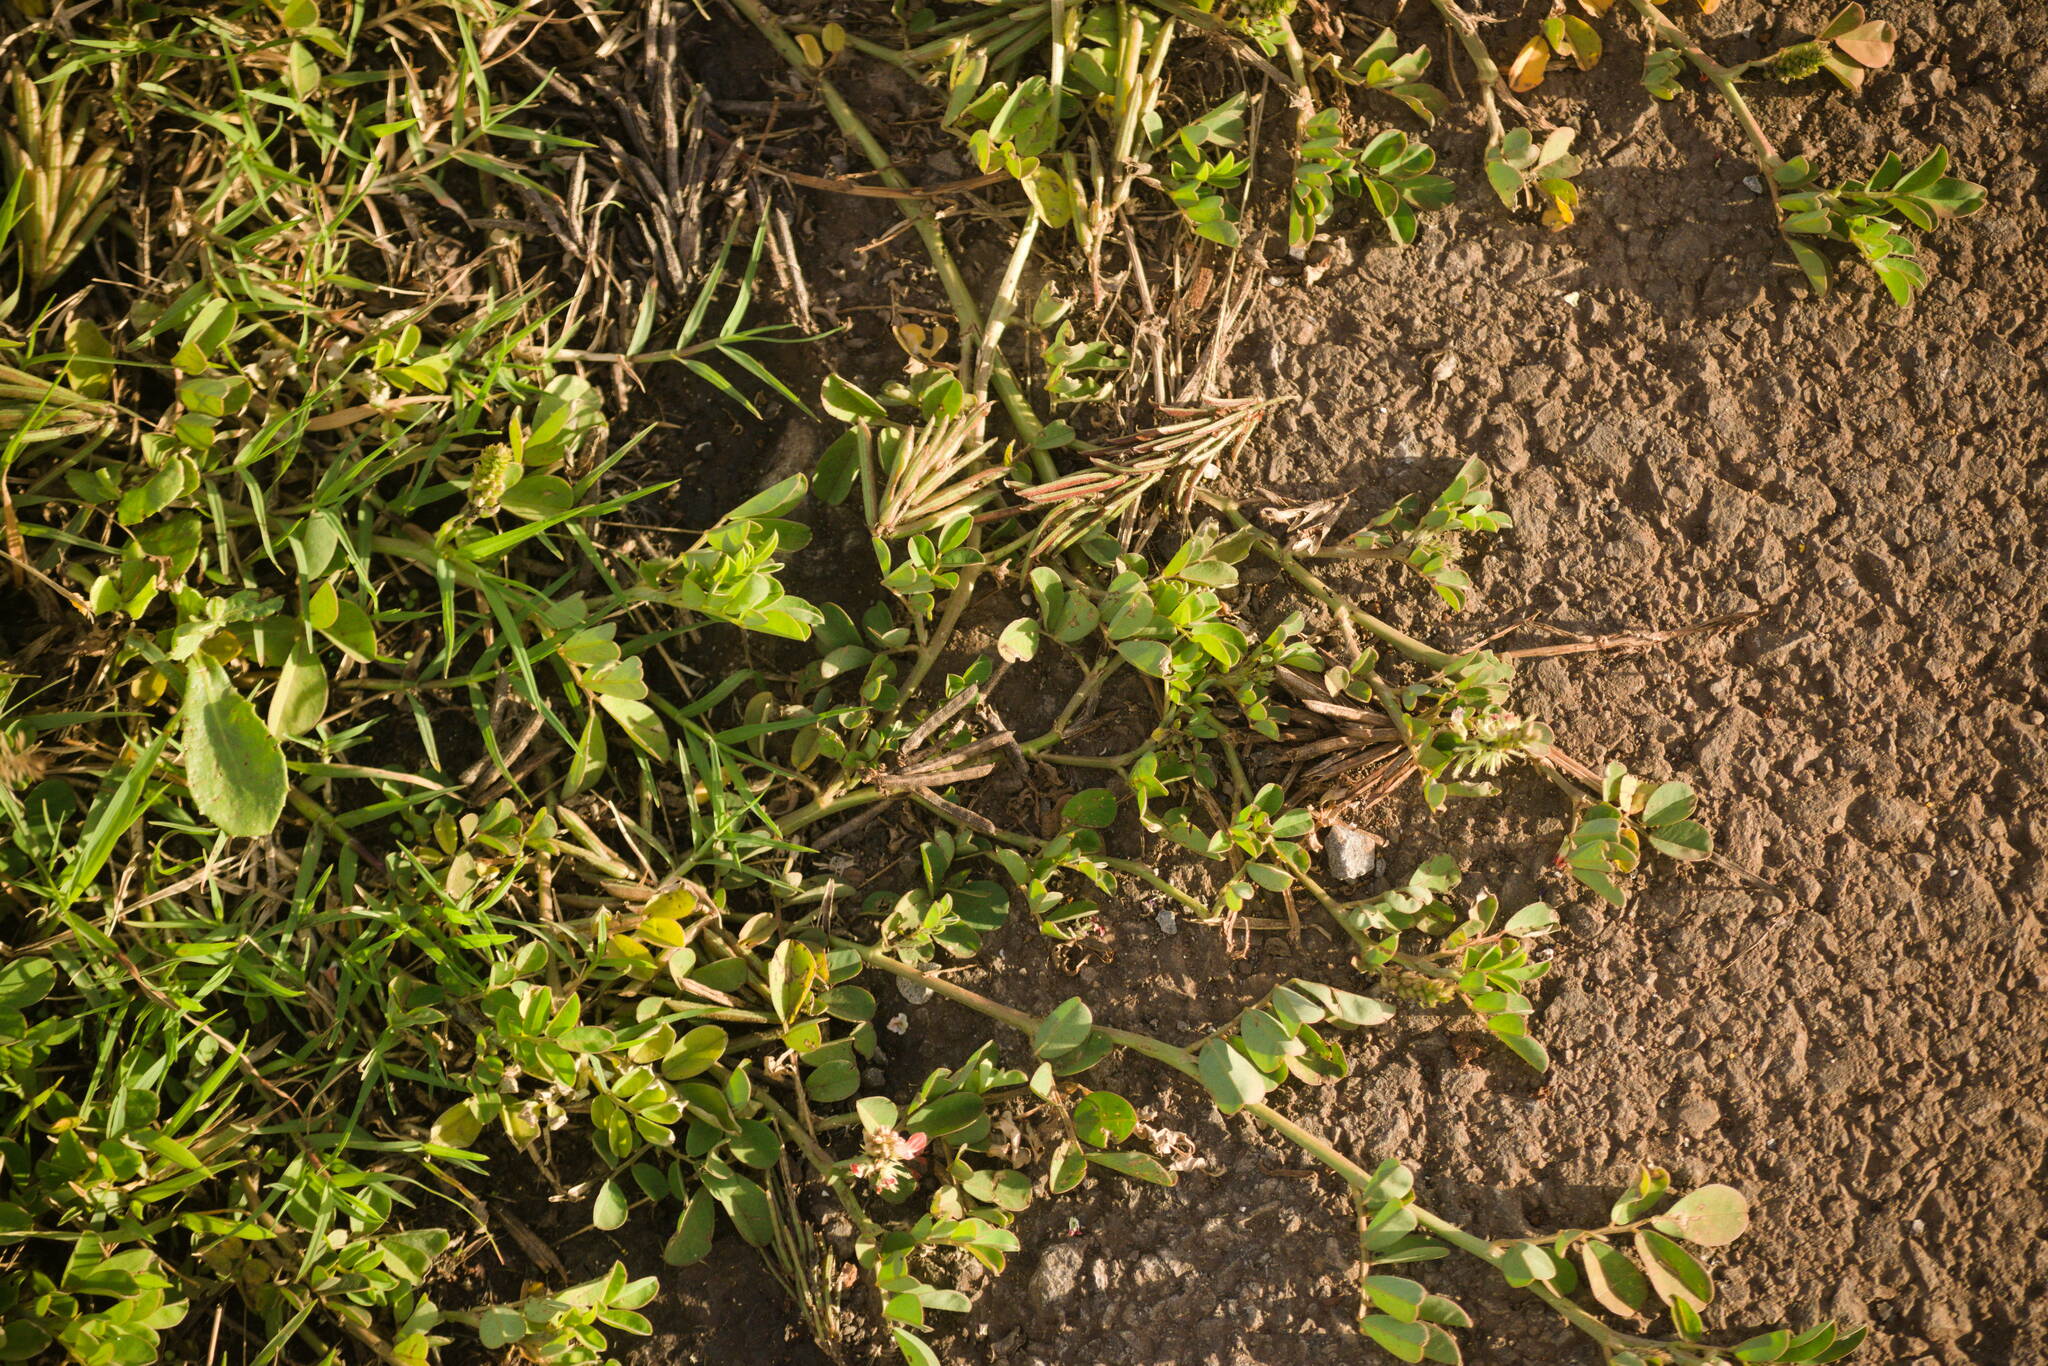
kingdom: Plantae
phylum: Tracheophyta
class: Magnoliopsida
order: Fabales
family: Fabaceae
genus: Indigofera
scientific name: Indigofera spicata
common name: Creeping indigo
